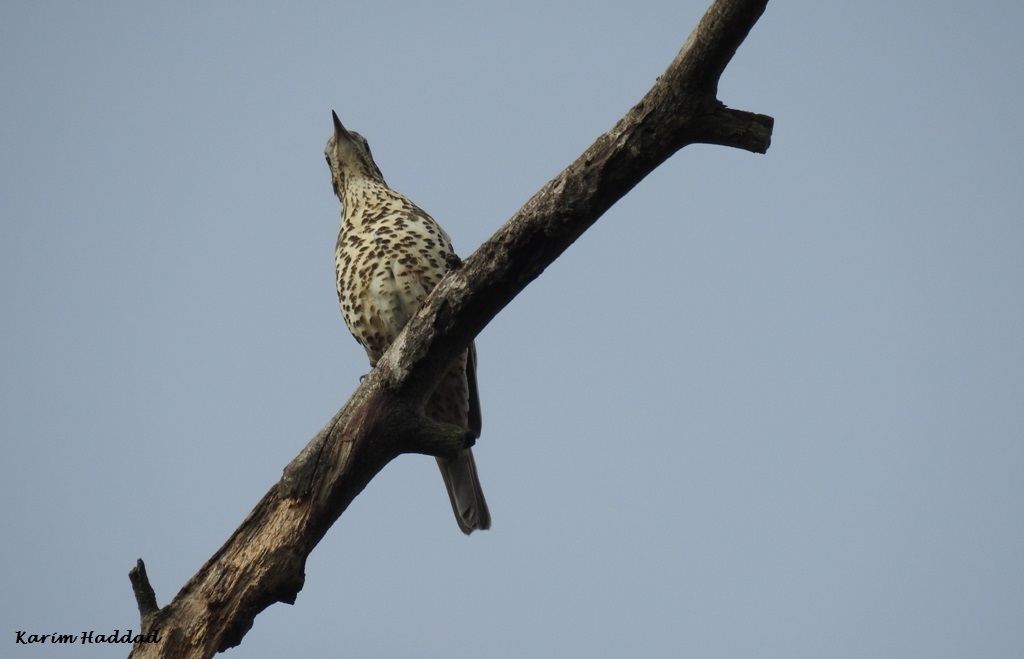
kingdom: Animalia
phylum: Chordata
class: Aves
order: Passeriformes
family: Turdidae
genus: Turdus
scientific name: Turdus viscivorus
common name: Mistle thrush
